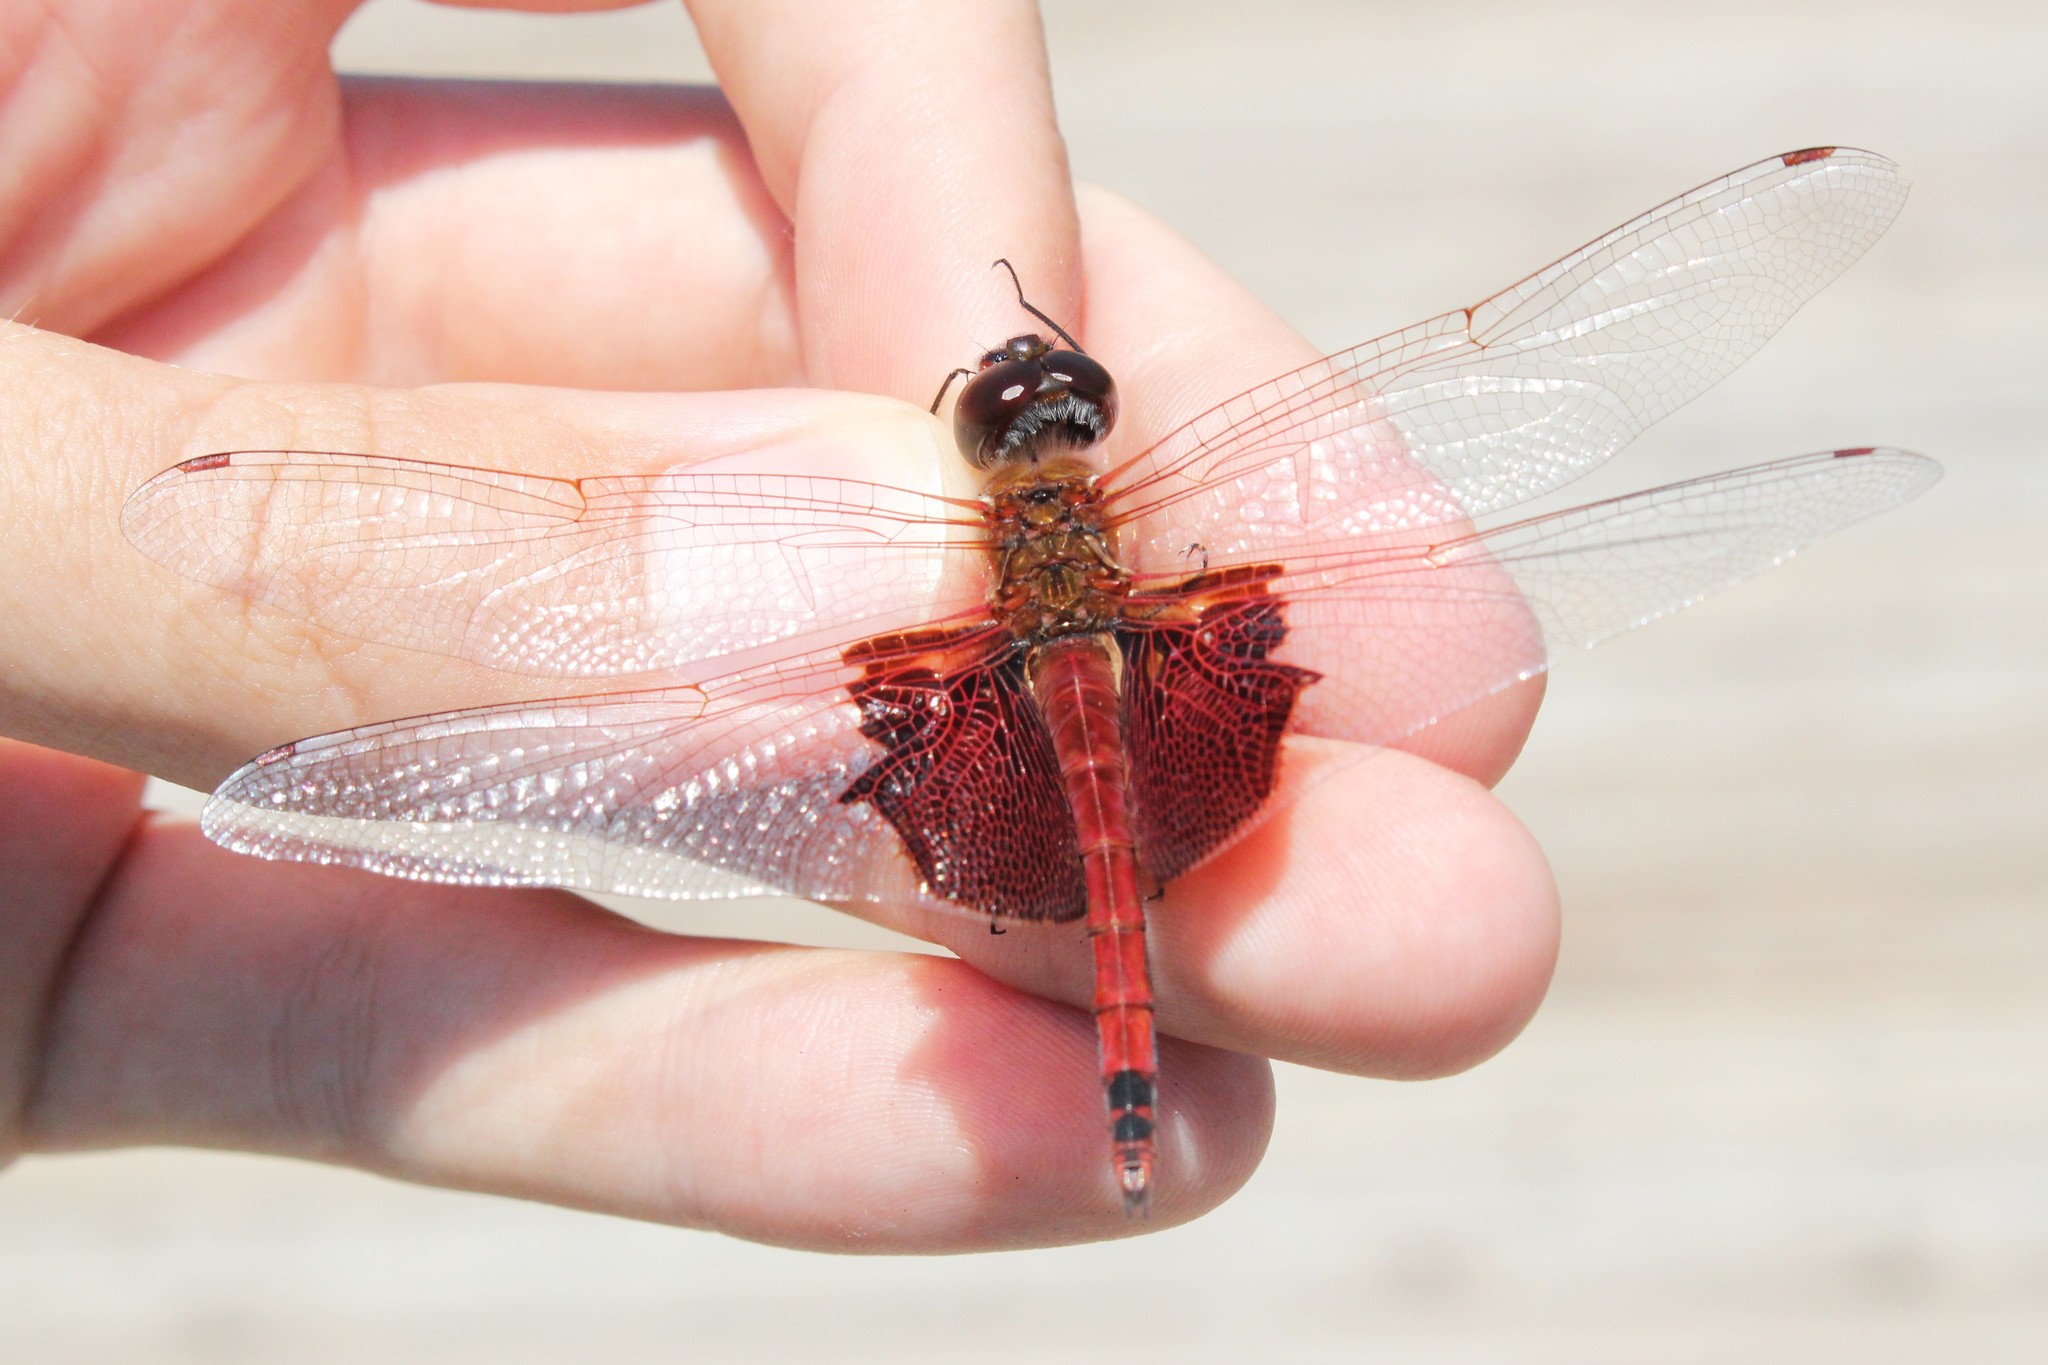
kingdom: Animalia
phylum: Arthropoda
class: Insecta
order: Odonata
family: Libellulidae
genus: Tramea
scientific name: Tramea carolina
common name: Carolina saddlebags
